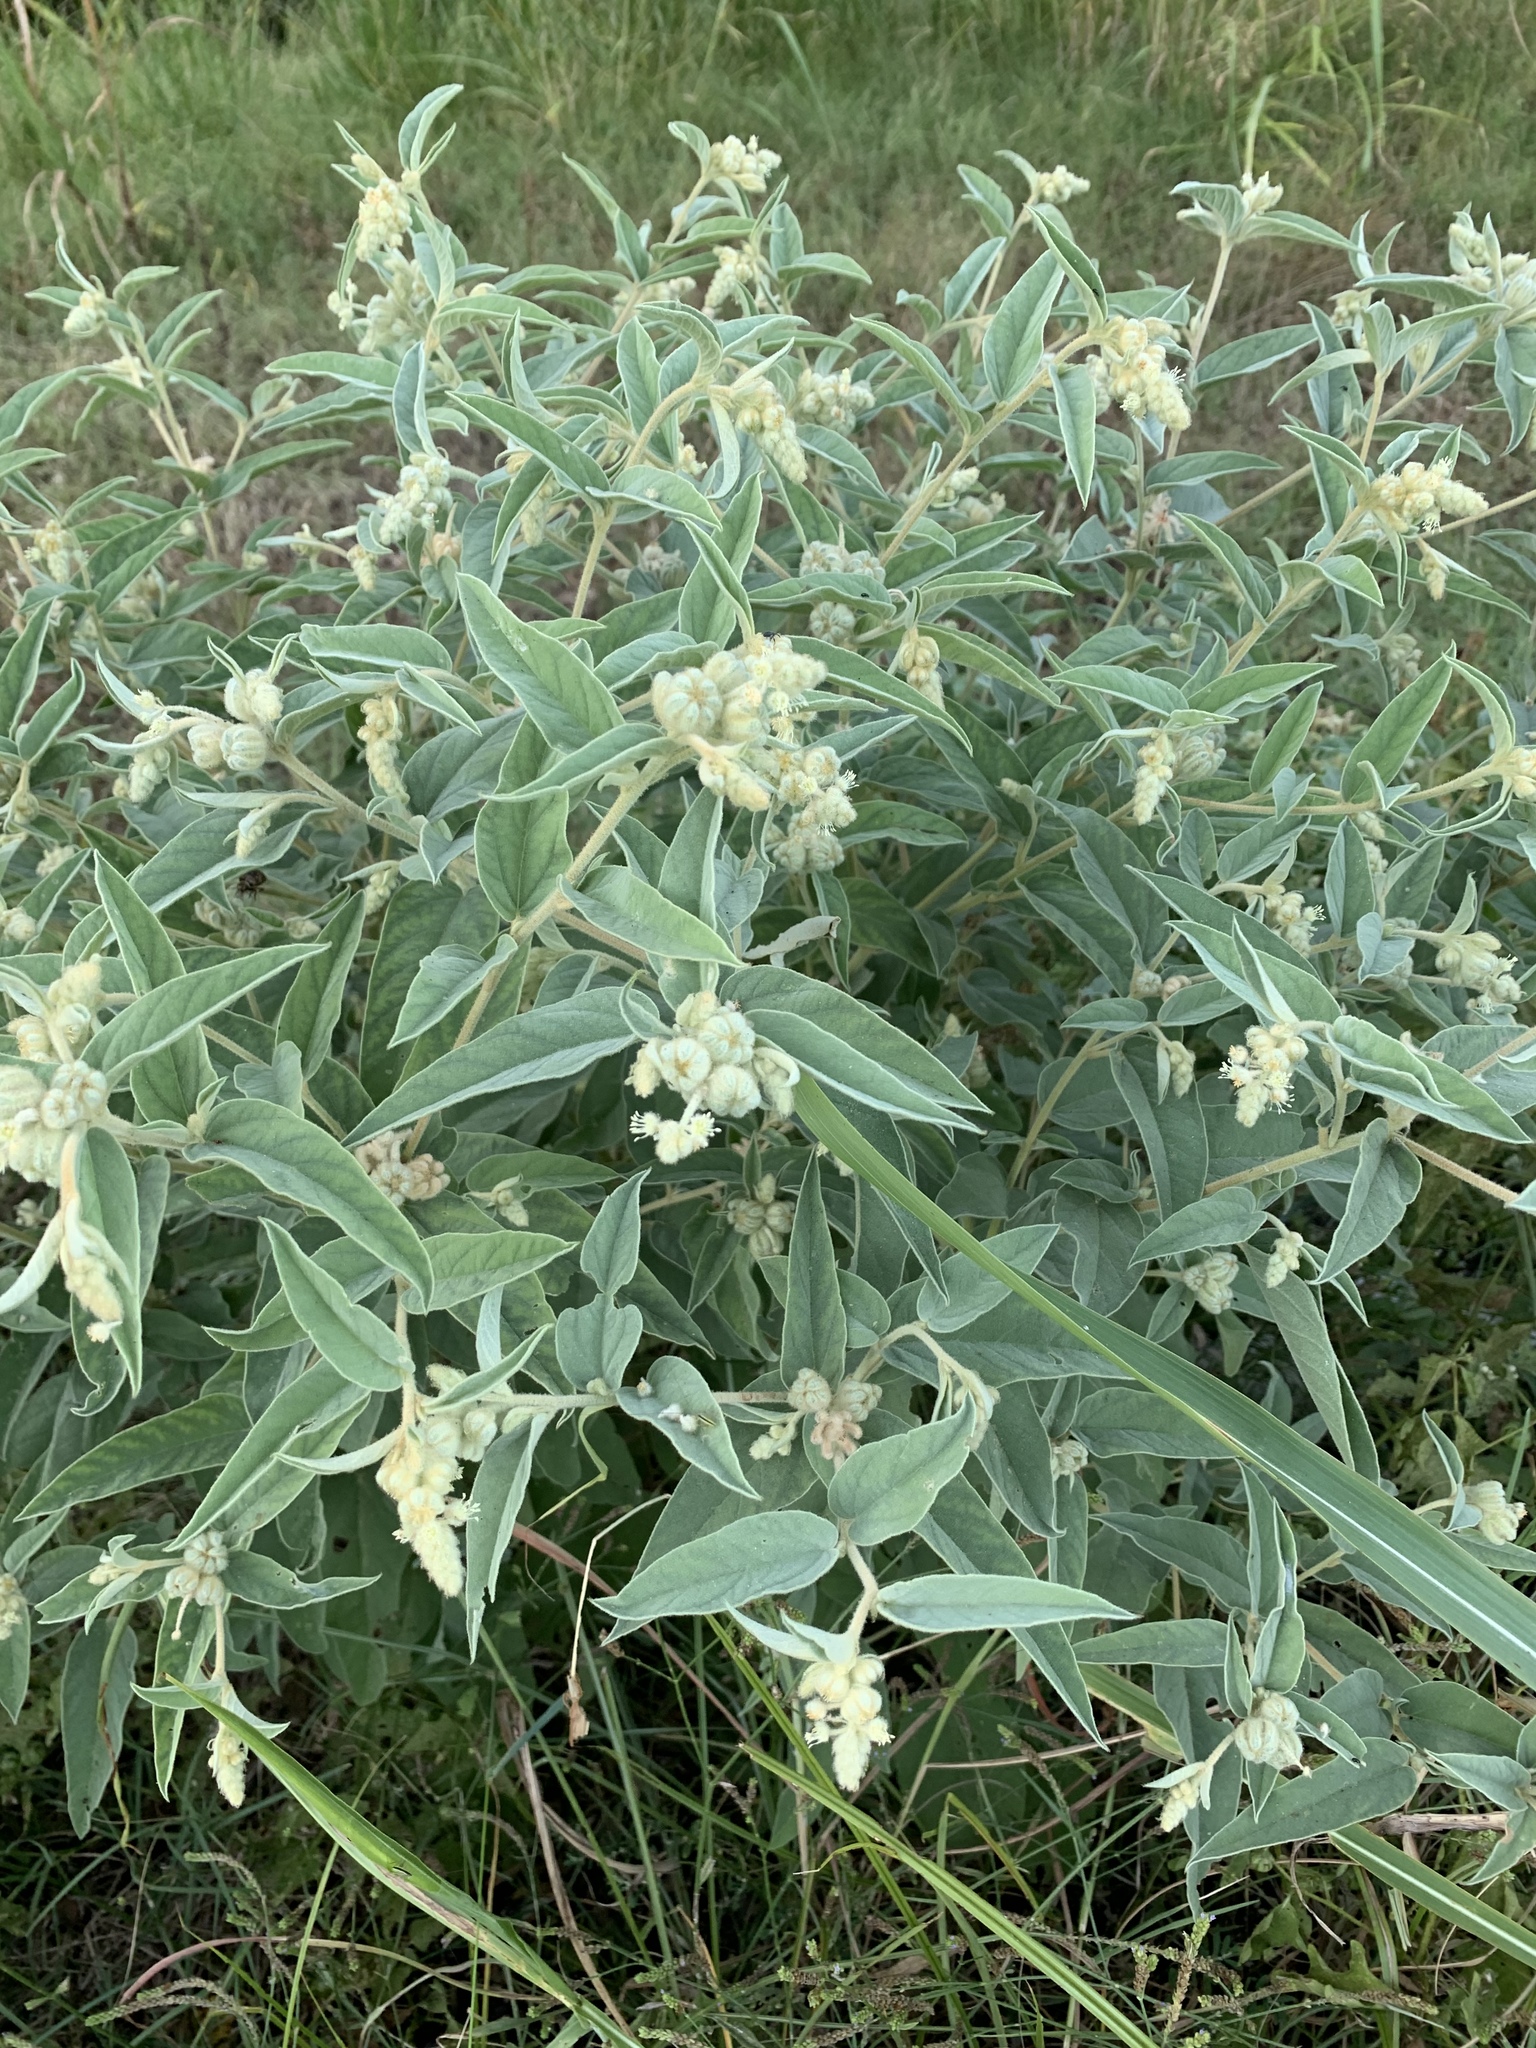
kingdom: Plantae
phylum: Tracheophyta
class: Magnoliopsida
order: Malpighiales
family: Euphorbiaceae
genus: Croton
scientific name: Croton lindheimeri
